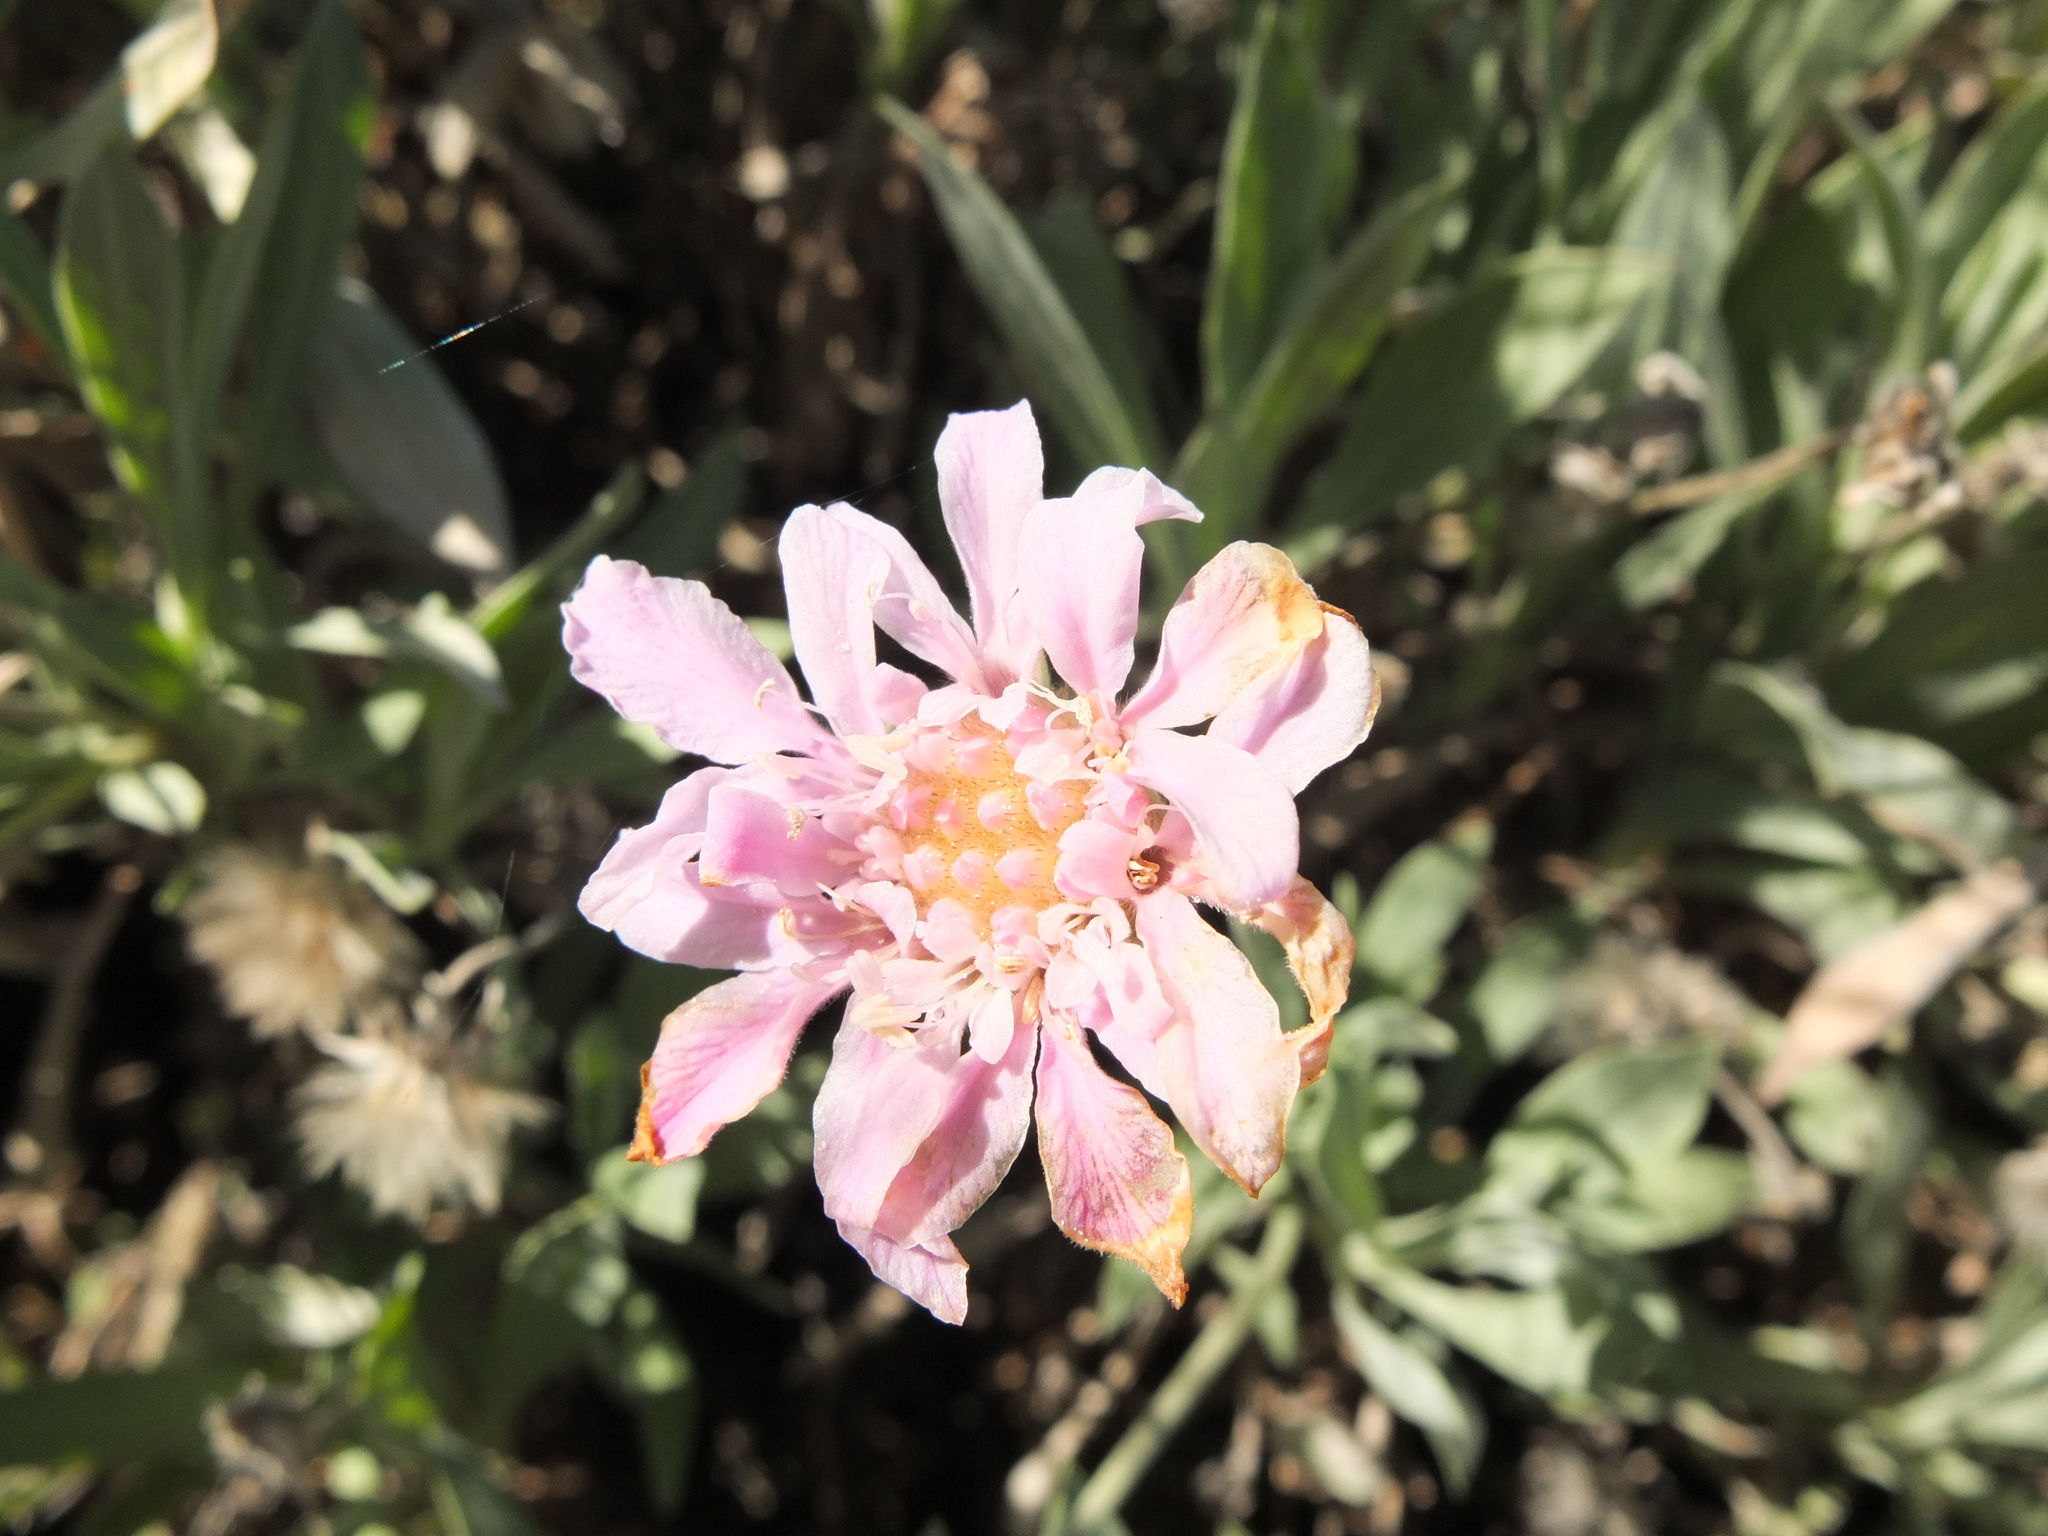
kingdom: Plantae
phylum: Tracheophyta
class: Magnoliopsida
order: Dipsacales
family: Caprifoliaceae
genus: Pterocephalus
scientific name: Pterocephalus lasiospermus
